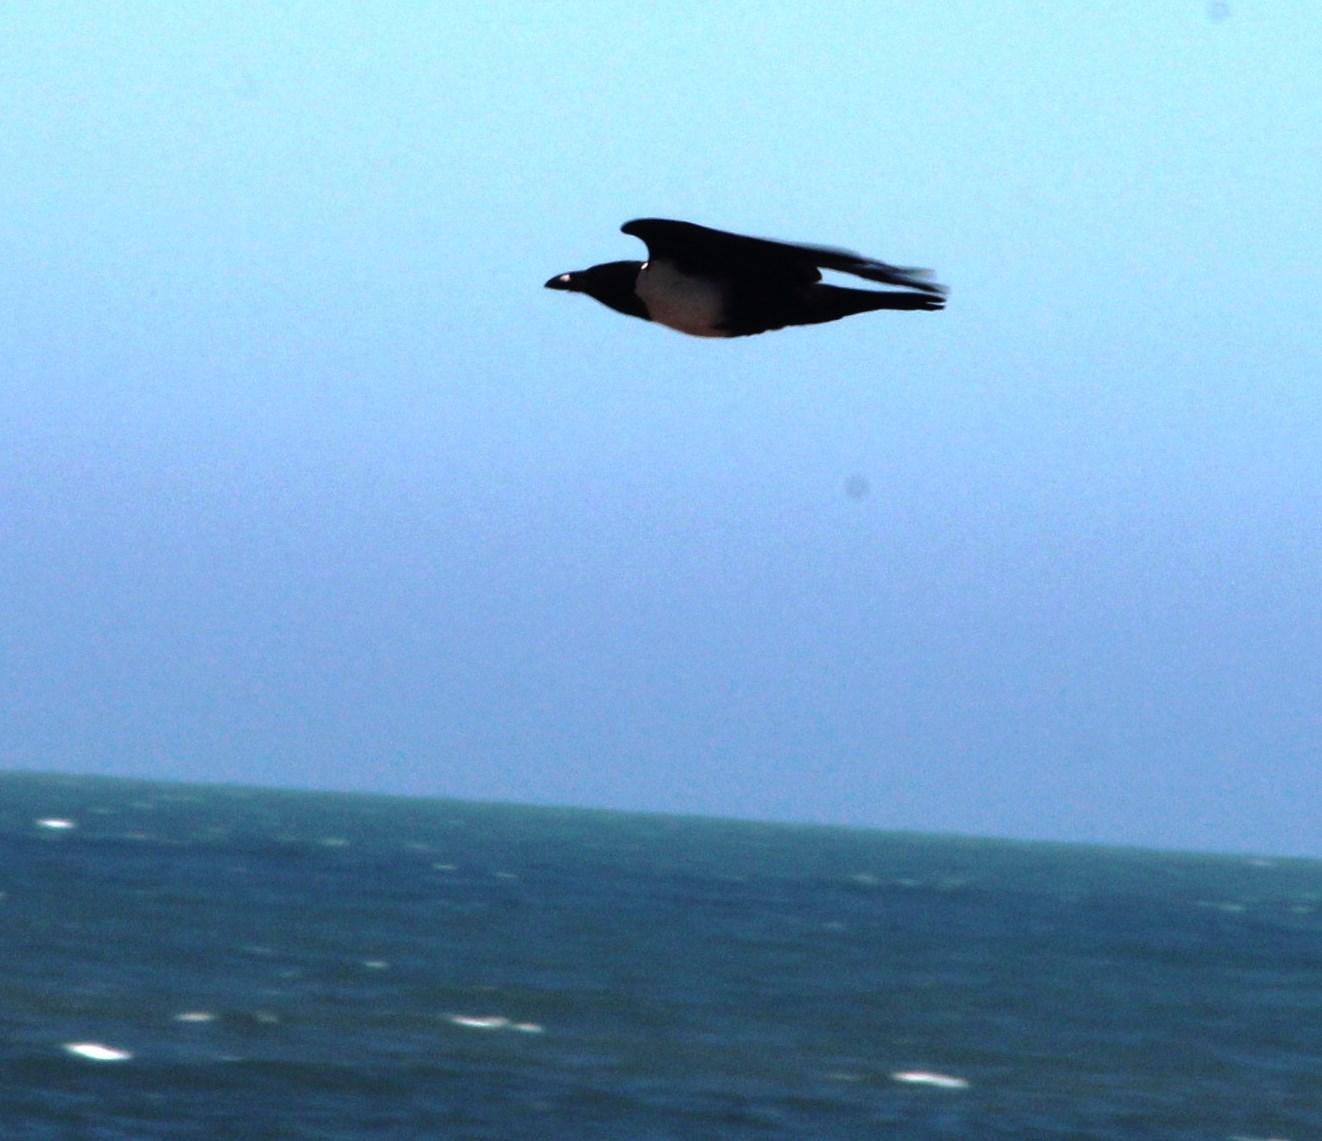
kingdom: Animalia
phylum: Chordata
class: Aves
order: Passeriformes
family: Corvidae
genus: Corvus
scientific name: Corvus albus
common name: Pied crow
